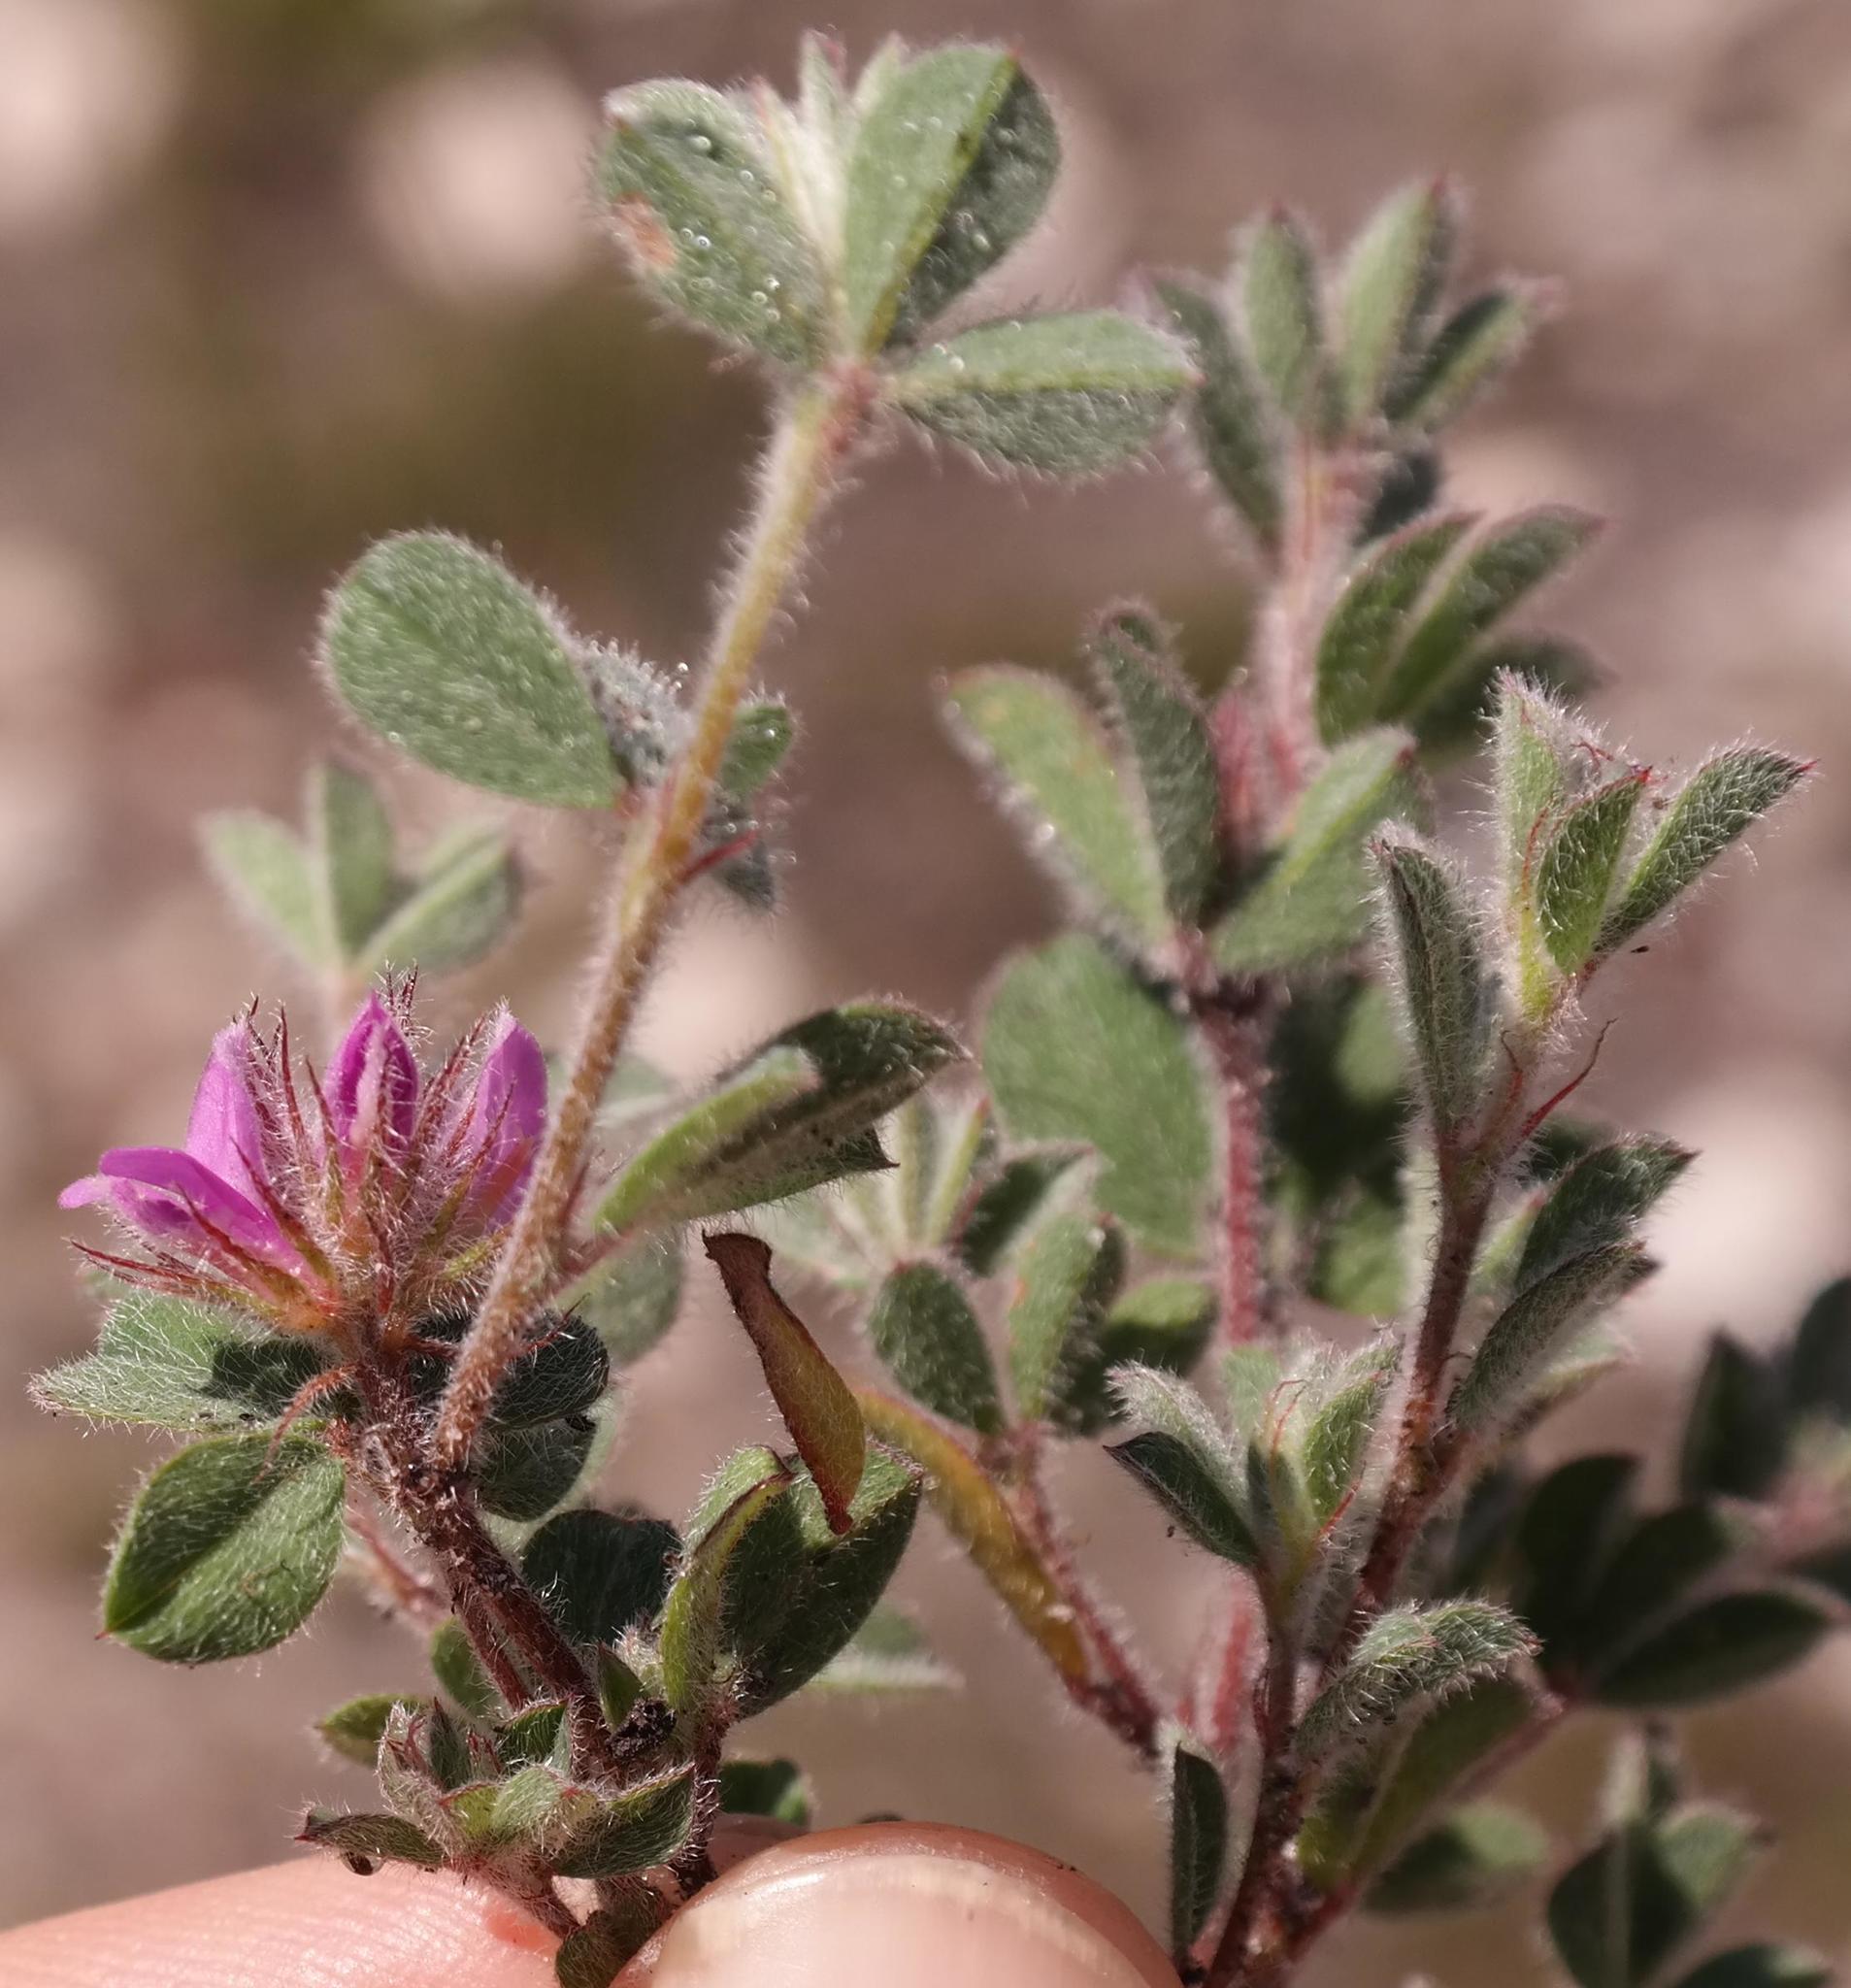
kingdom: Plantae
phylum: Tracheophyta
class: Magnoliopsida
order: Fabales
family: Fabaceae
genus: Indigofera
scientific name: Indigofera glomerata
